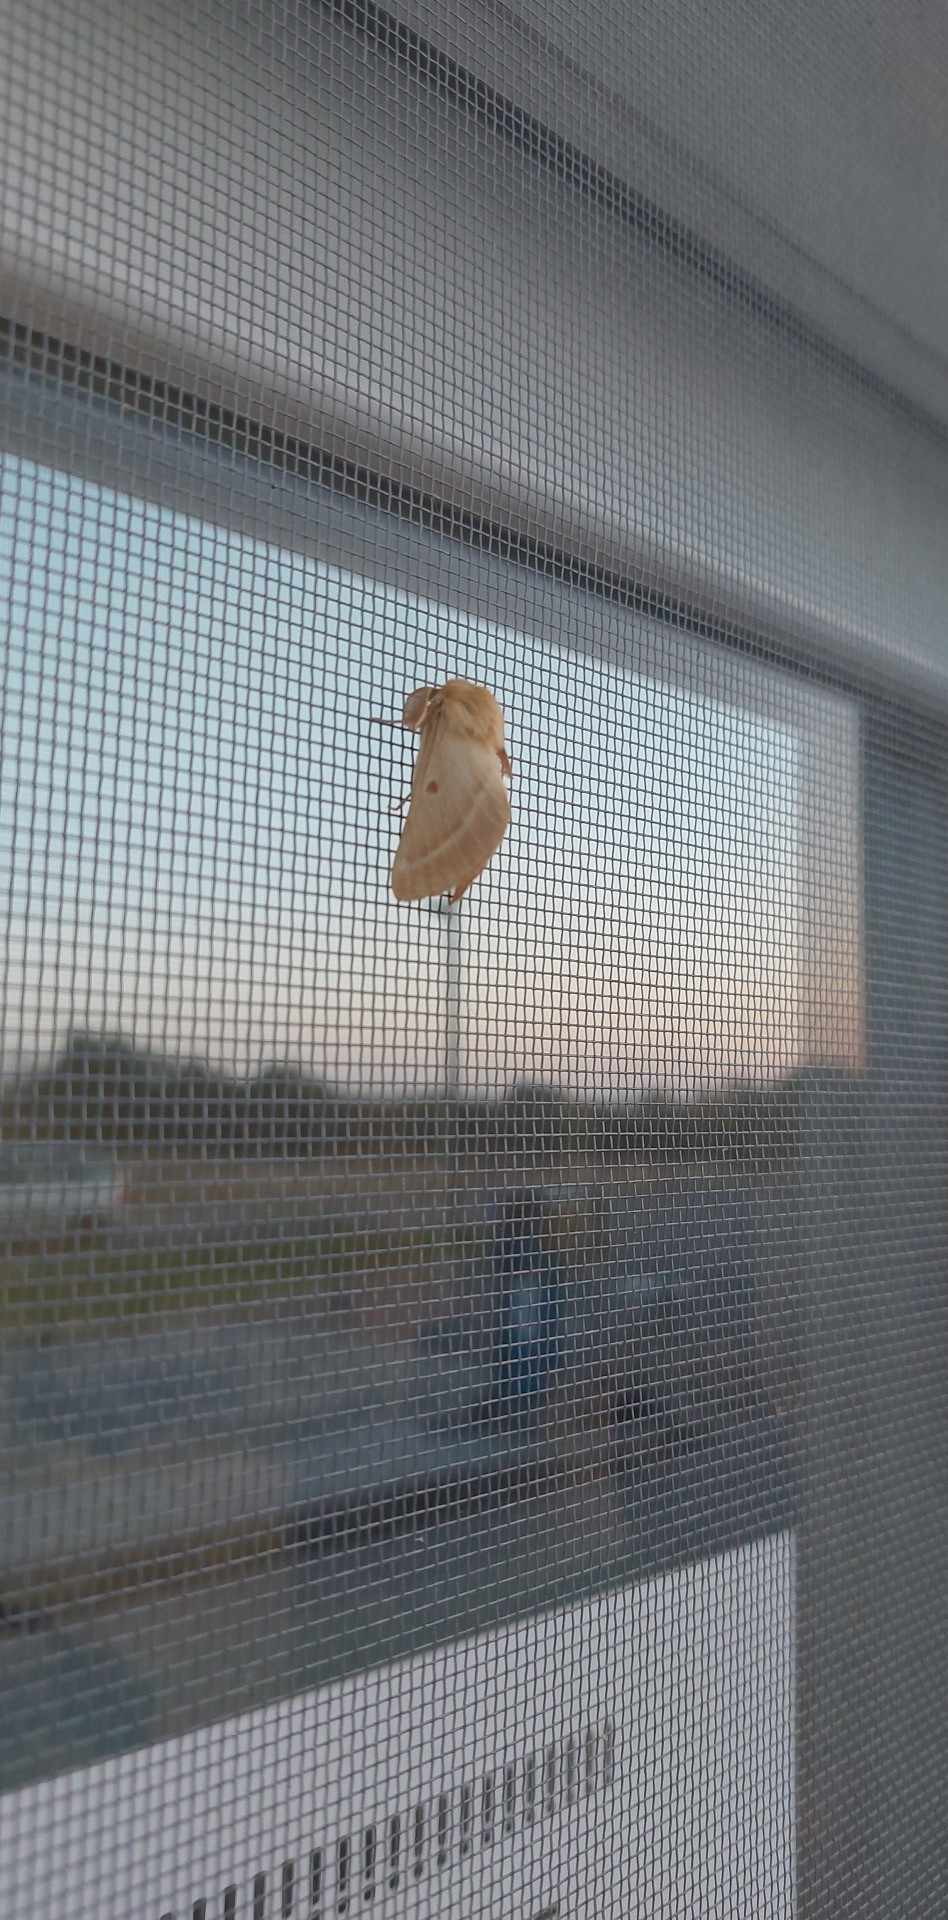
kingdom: Animalia
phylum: Arthropoda
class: Insecta
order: Lepidoptera
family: Brahmaeidae
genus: Lemonia
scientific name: Lemonia balcanica
